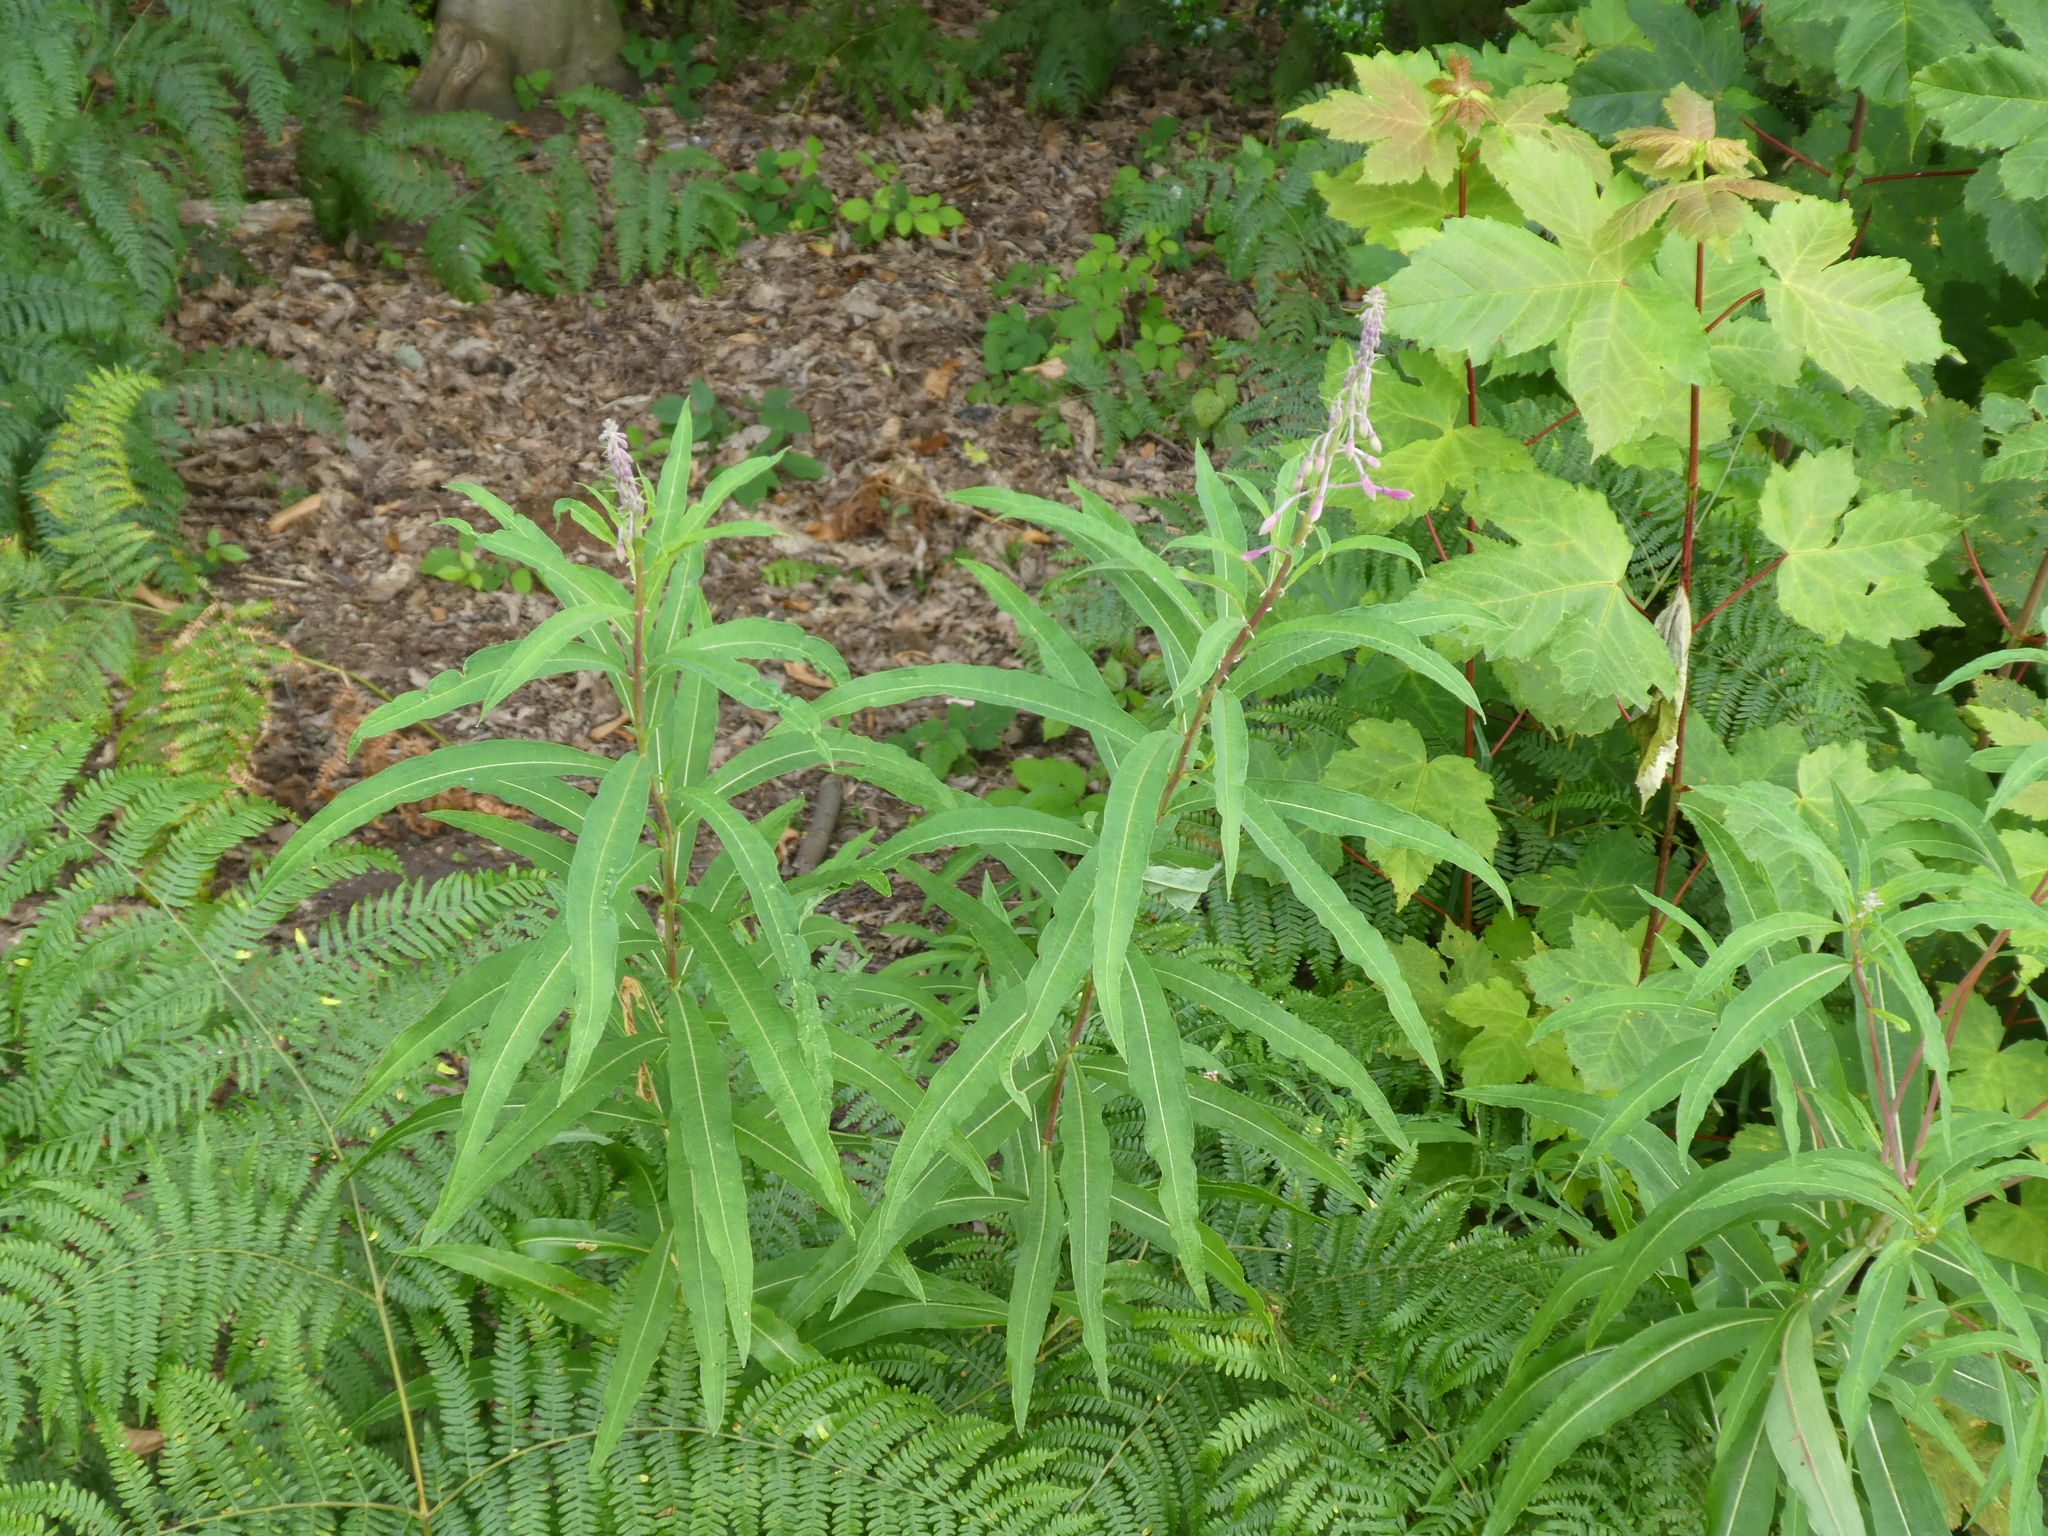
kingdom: Plantae
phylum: Tracheophyta
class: Magnoliopsida
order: Myrtales
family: Onagraceae
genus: Chamaenerion
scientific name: Chamaenerion angustifolium
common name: Fireweed
